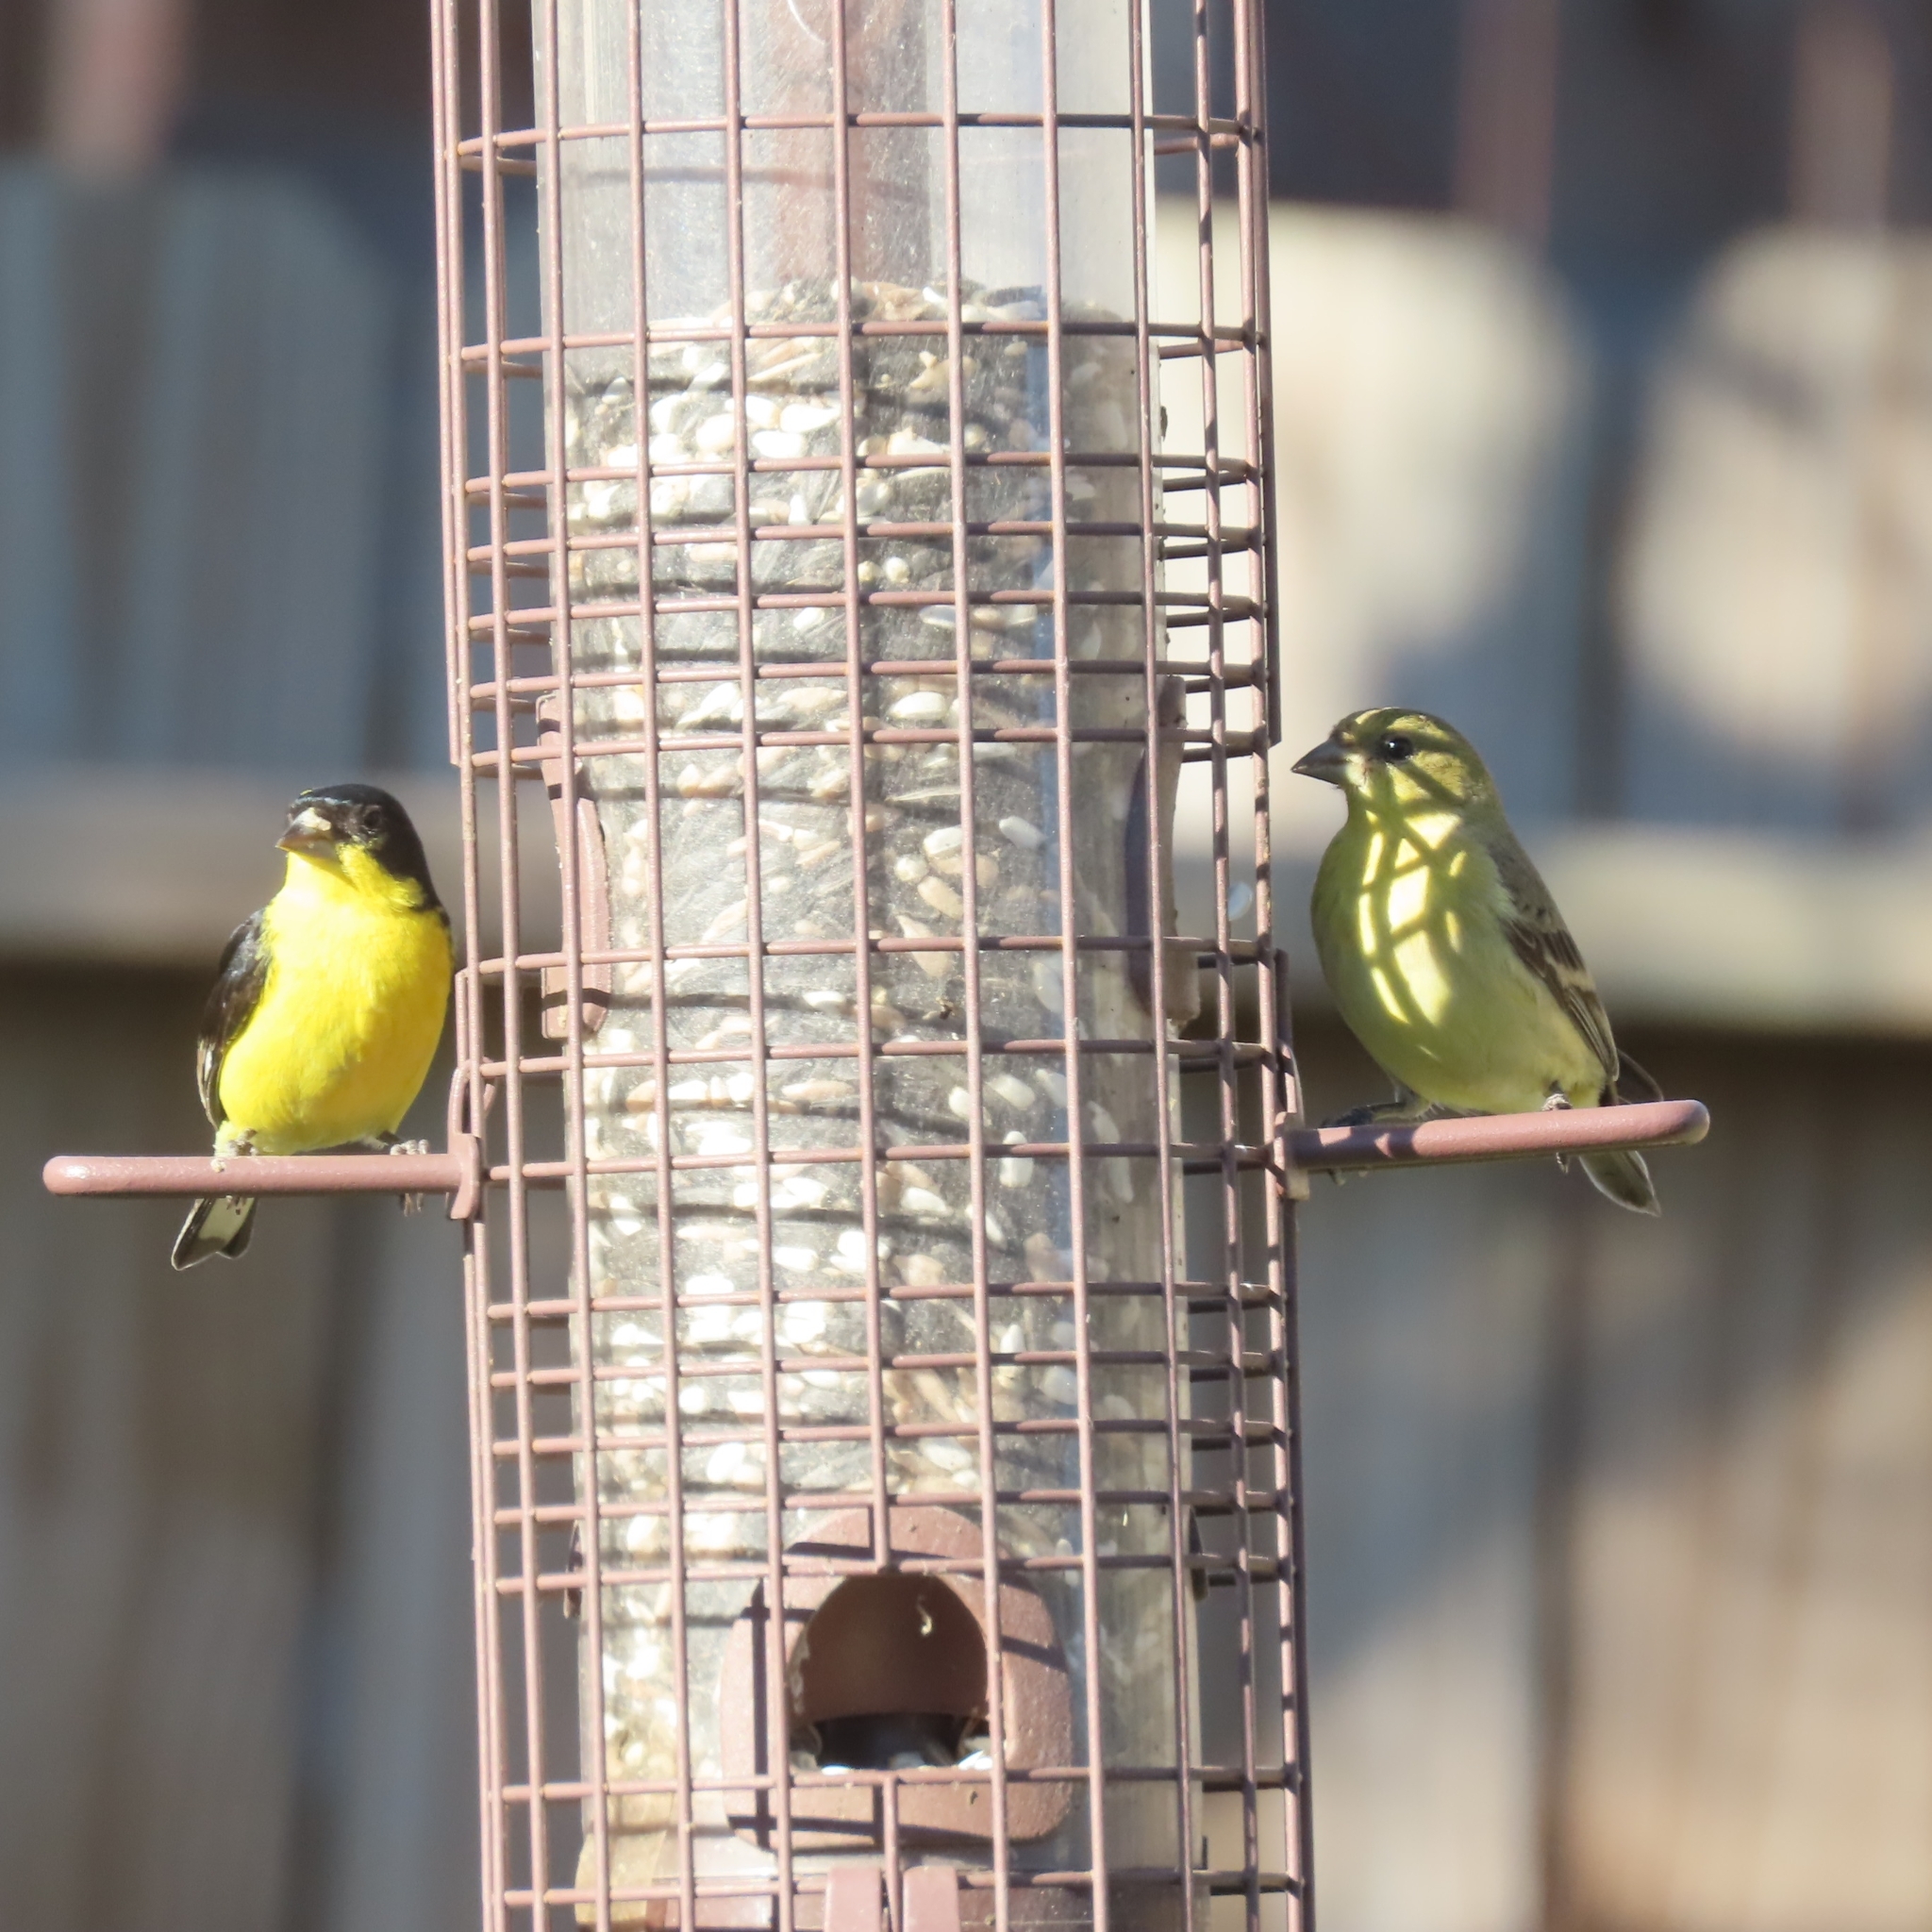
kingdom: Animalia
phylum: Chordata
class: Aves
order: Passeriformes
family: Fringillidae
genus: Spinus
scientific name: Spinus psaltria
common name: Lesser goldfinch
